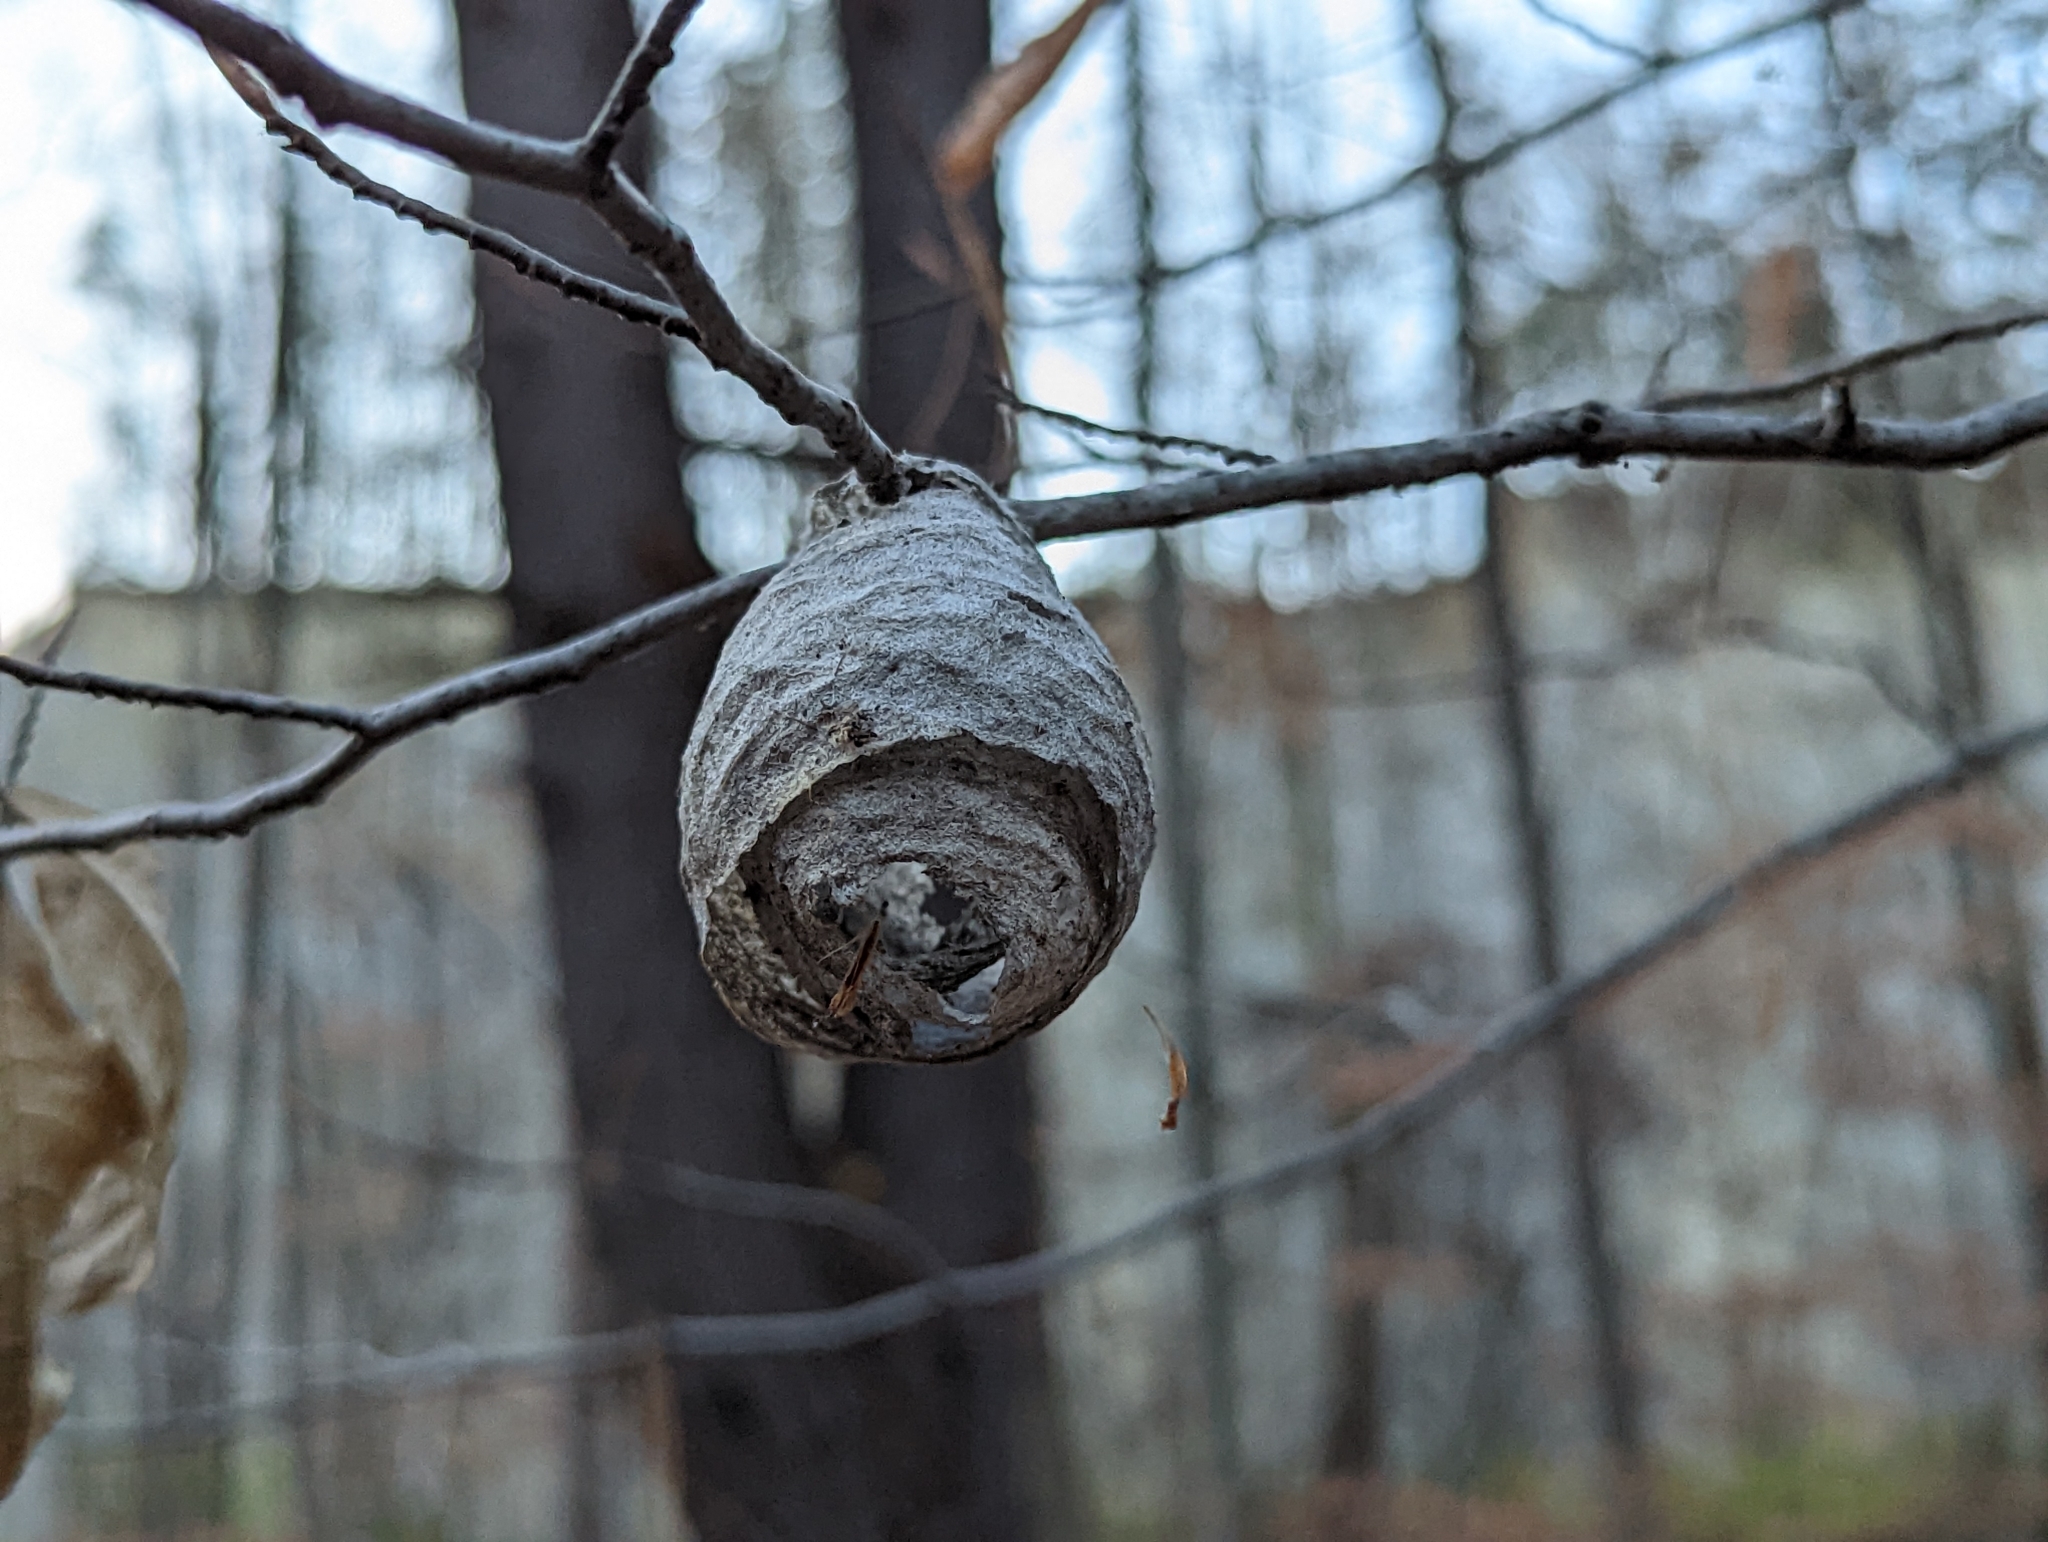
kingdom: Animalia
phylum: Arthropoda
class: Insecta
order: Hymenoptera
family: Vespidae
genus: Dolichovespula
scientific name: Dolichovespula
